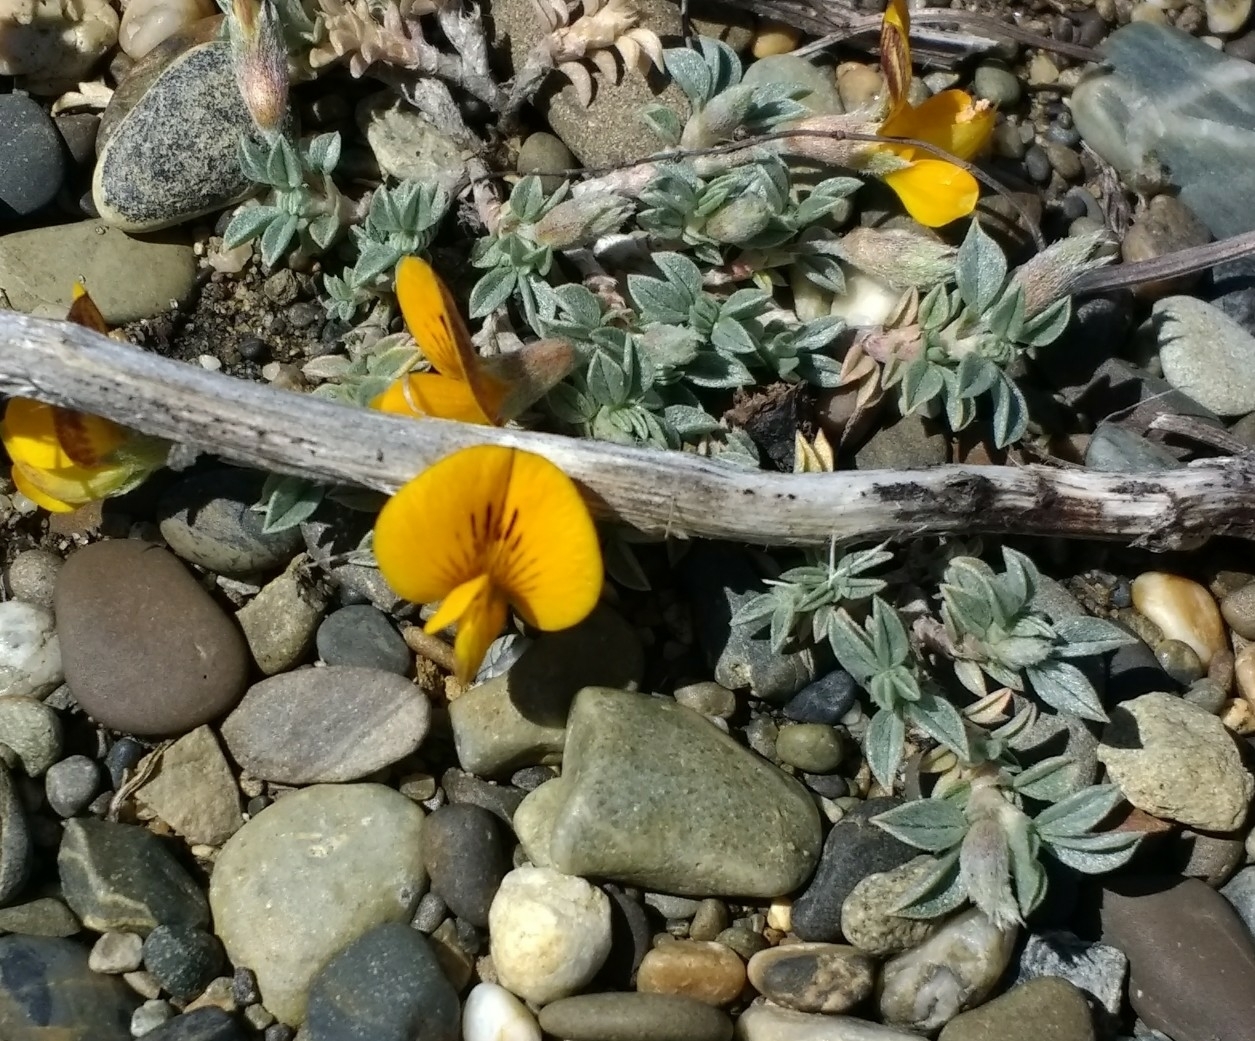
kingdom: Plantae
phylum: Tracheophyta
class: Magnoliopsida
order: Fabales
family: Fabaceae
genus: Adesmia
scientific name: Adesmia lotoides
